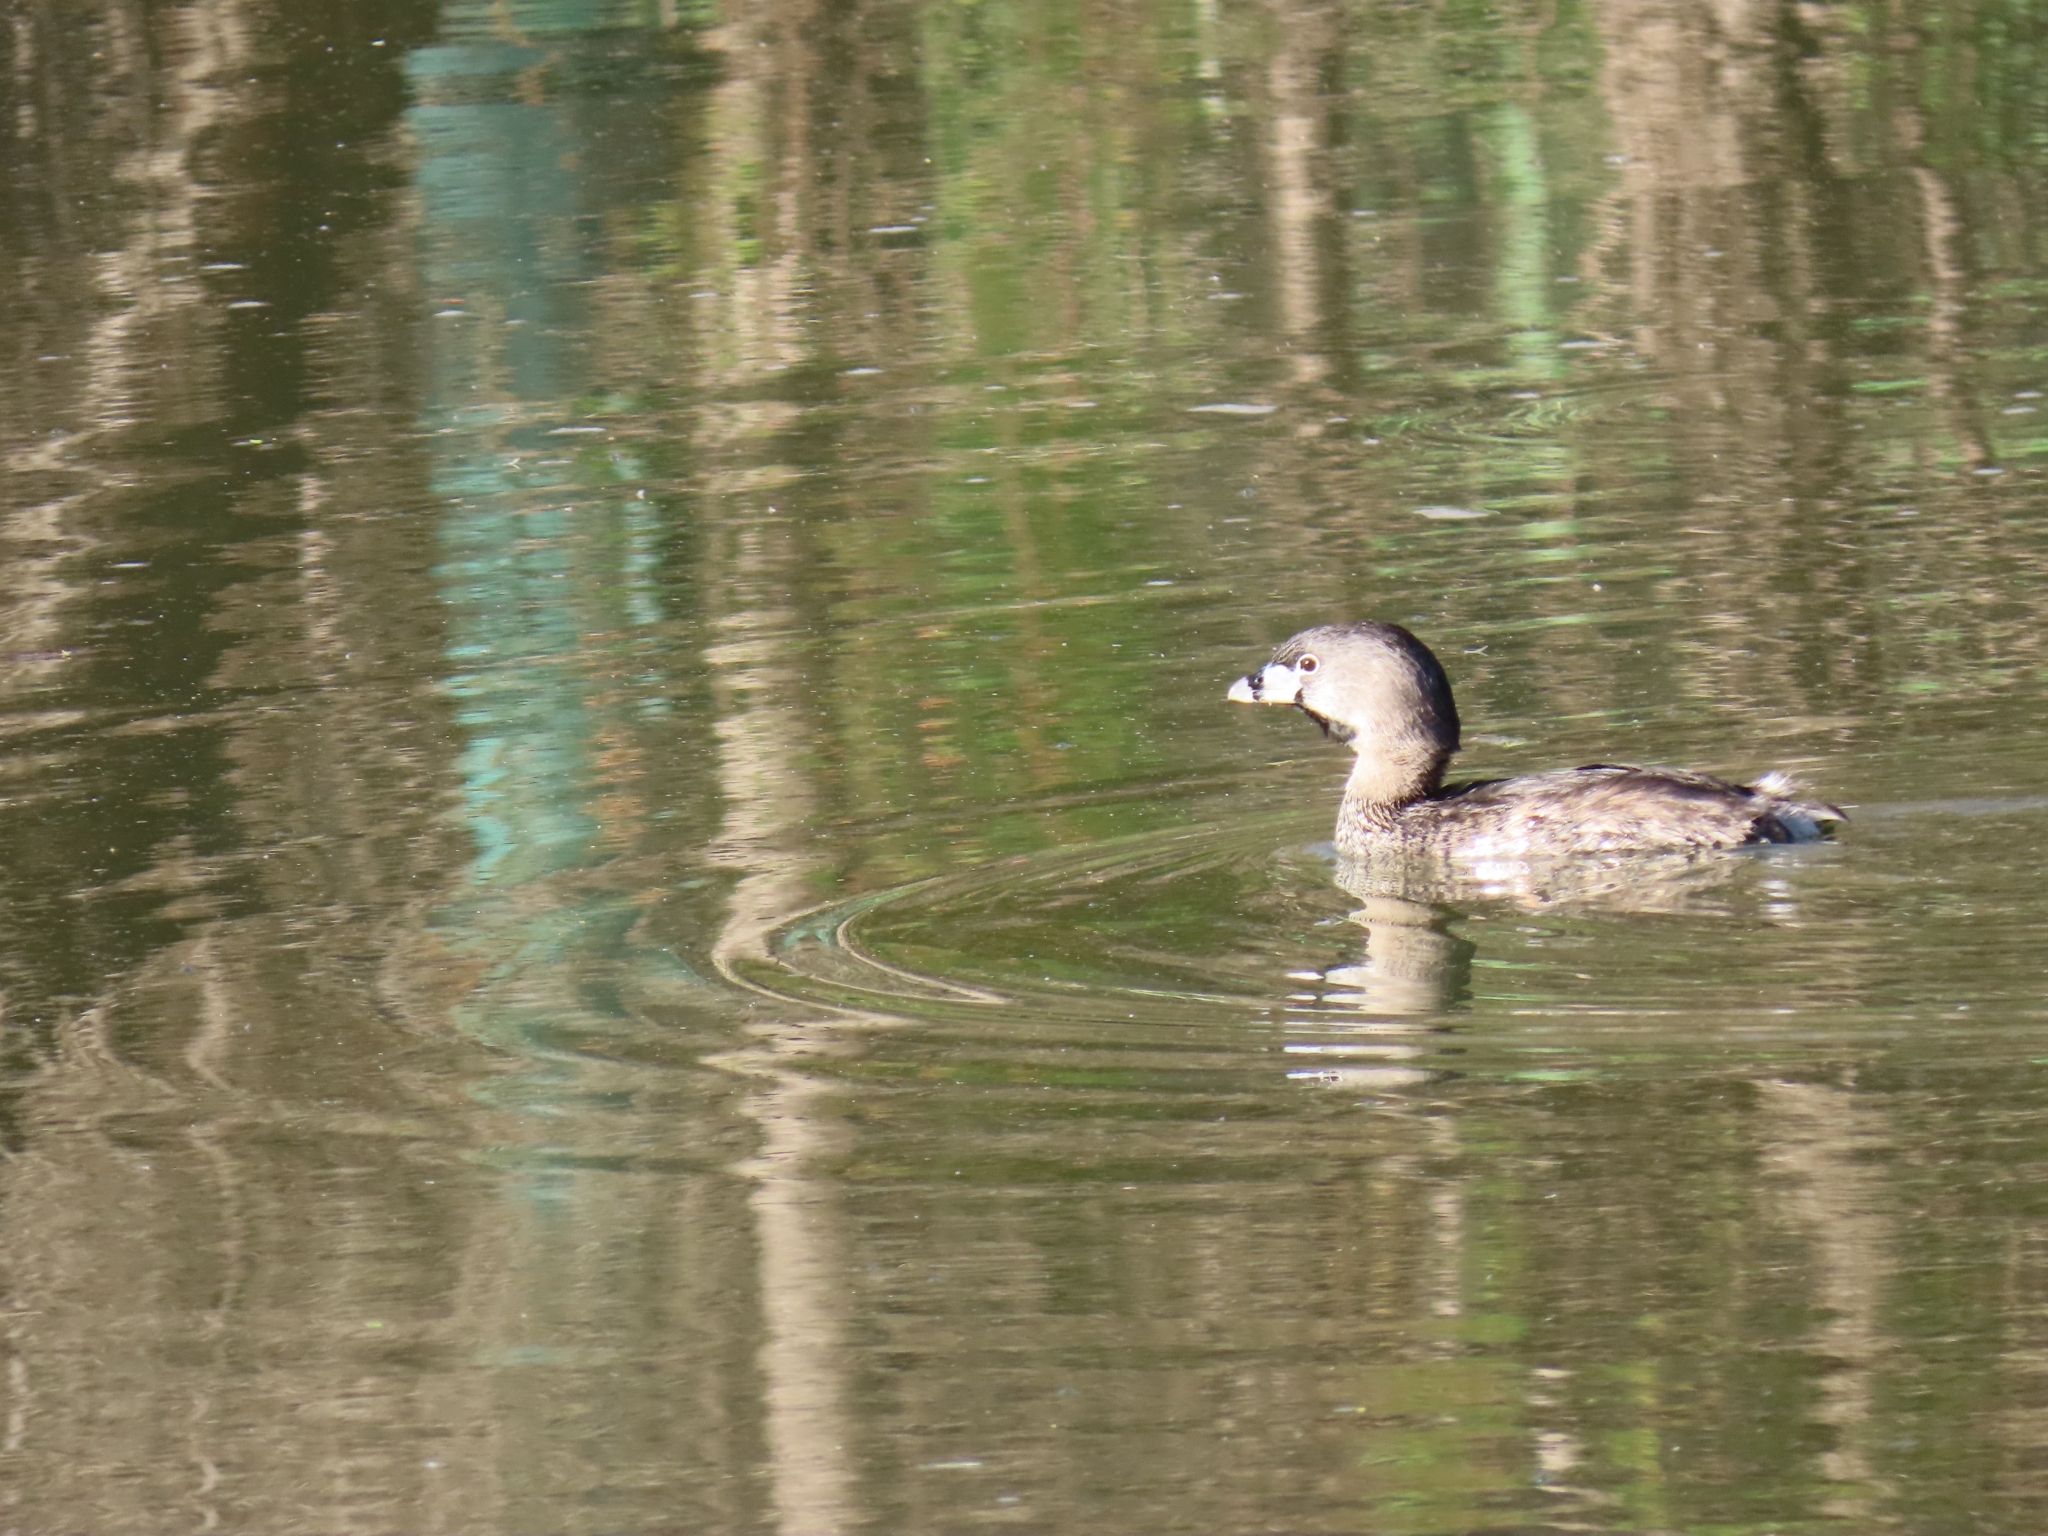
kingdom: Animalia
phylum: Chordata
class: Aves
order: Podicipediformes
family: Podicipedidae
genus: Podilymbus
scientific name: Podilymbus podiceps
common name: Pied-billed grebe
